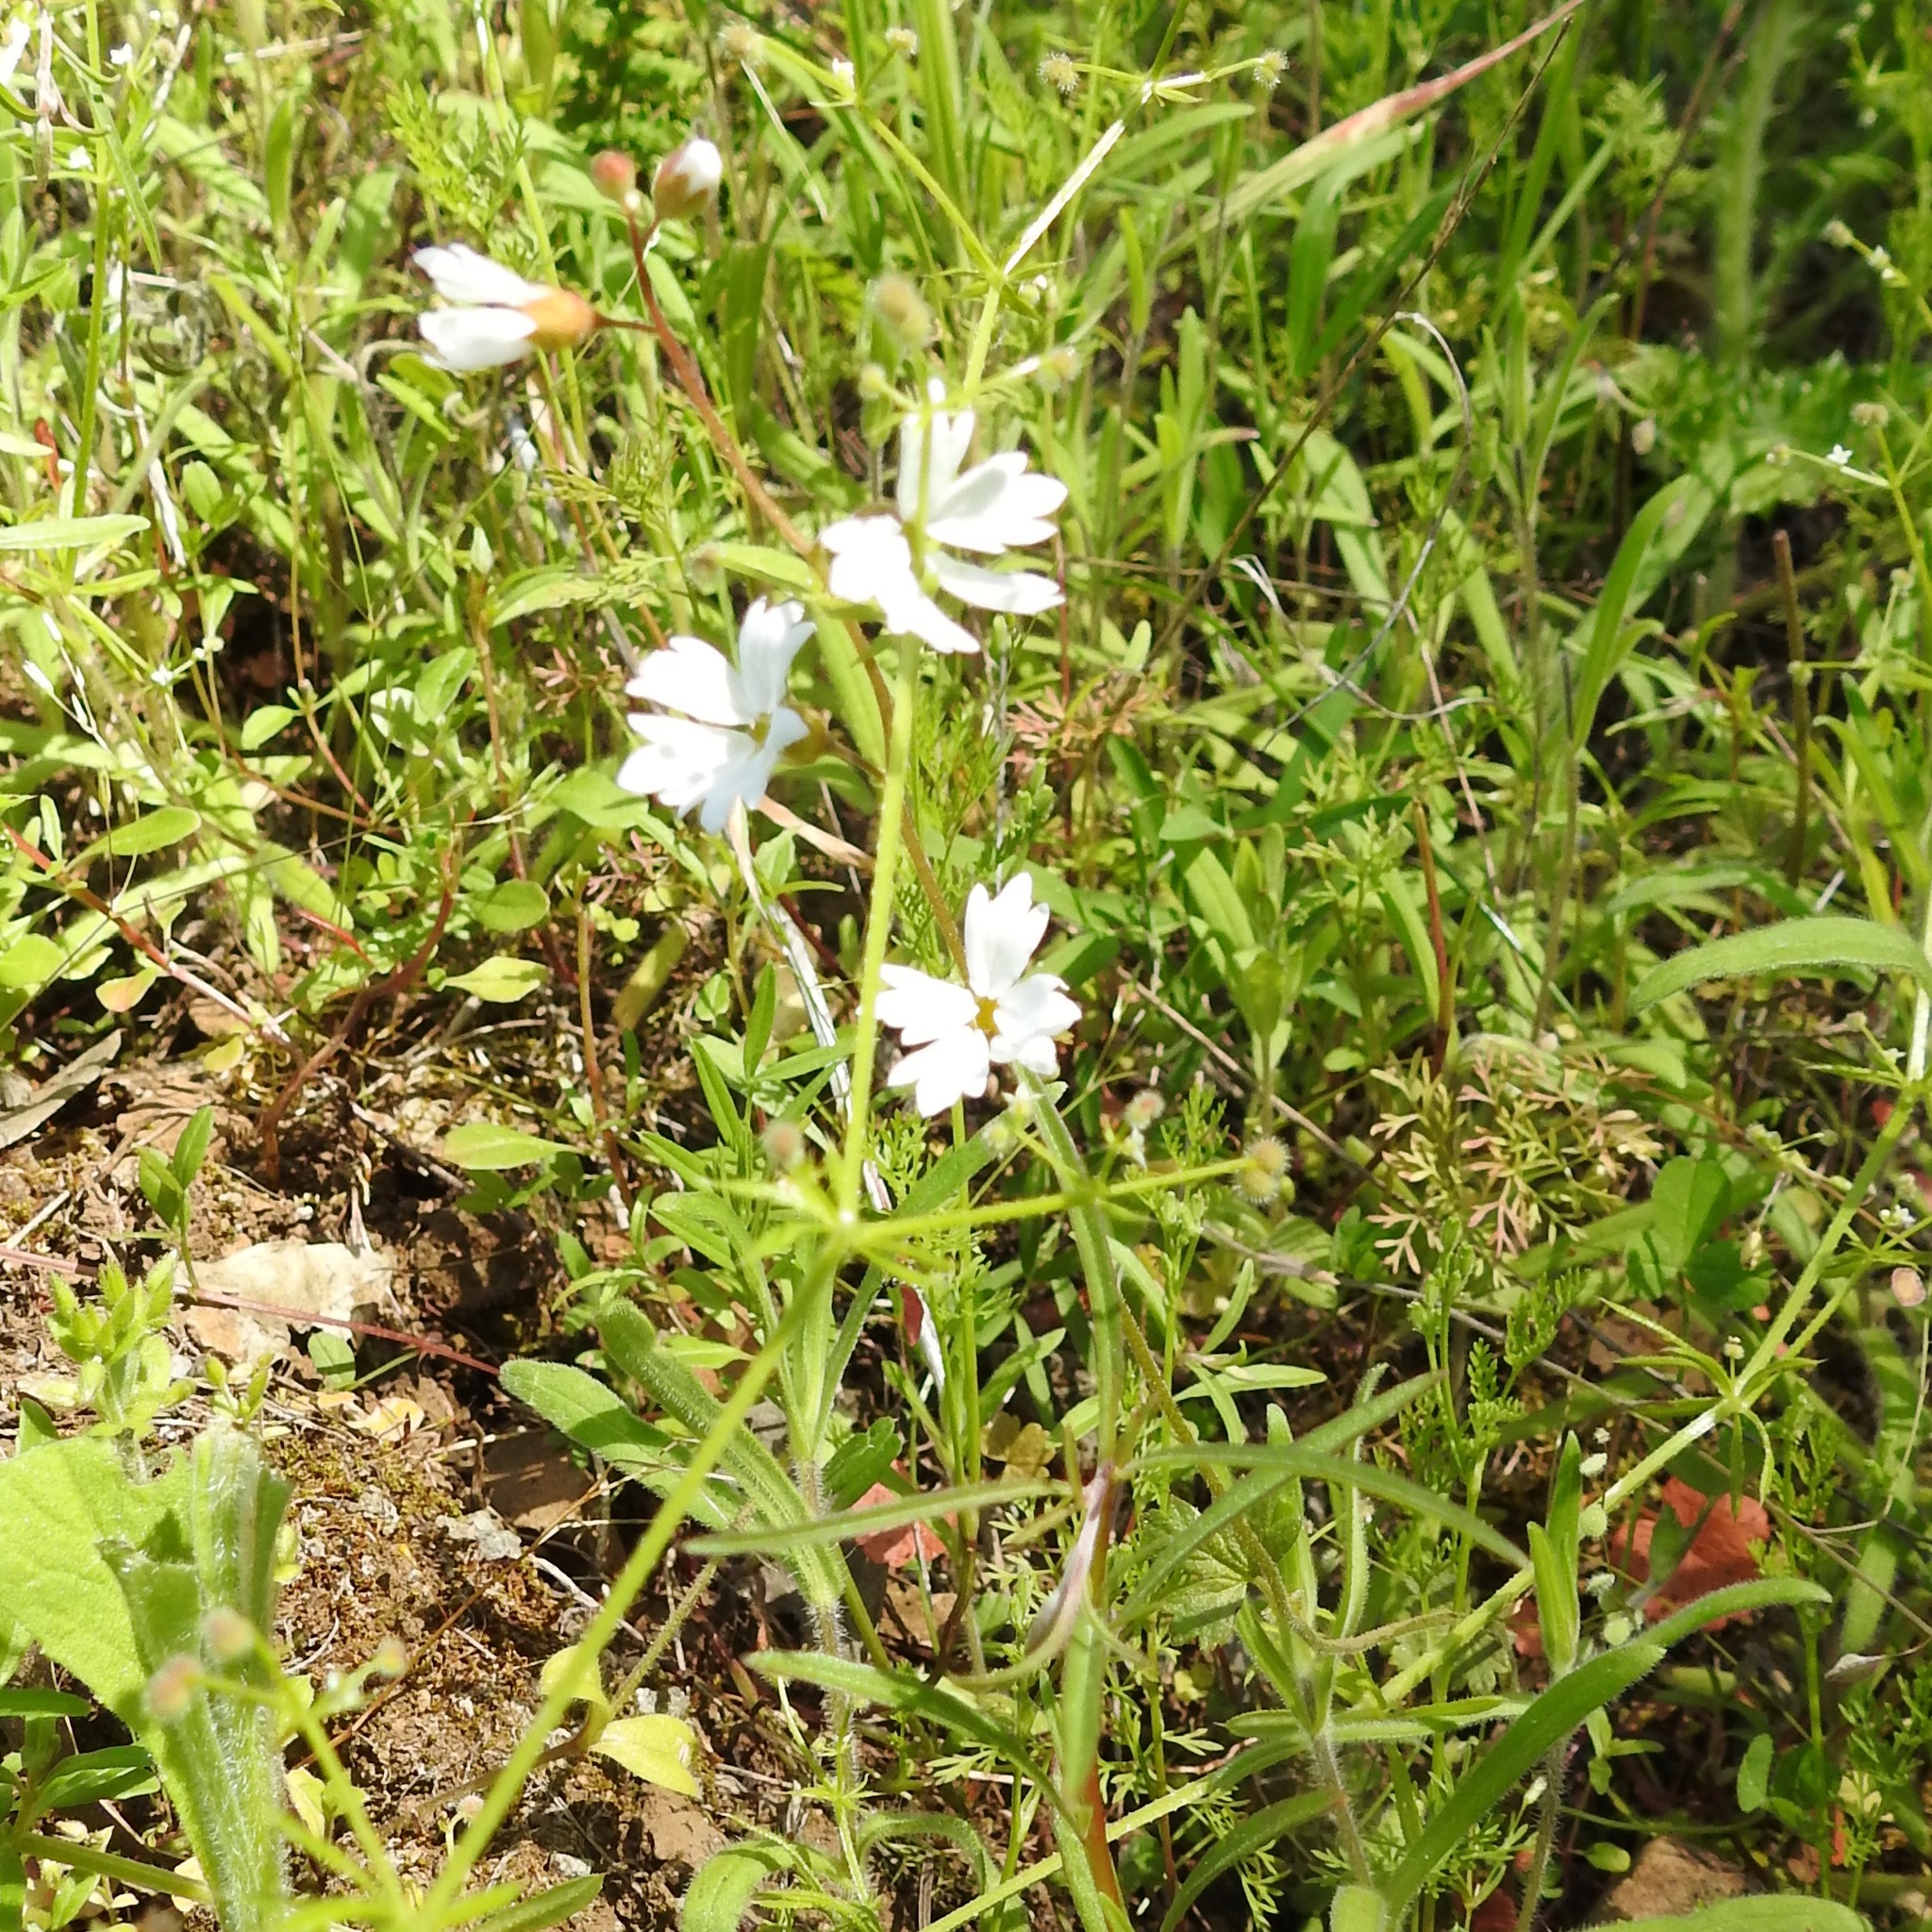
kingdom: Plantae
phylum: Tracheophyta
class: Magnoliopsida
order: Saxifragales
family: Saxifragaceae
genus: Lithophragma
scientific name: Lithophragma affine
